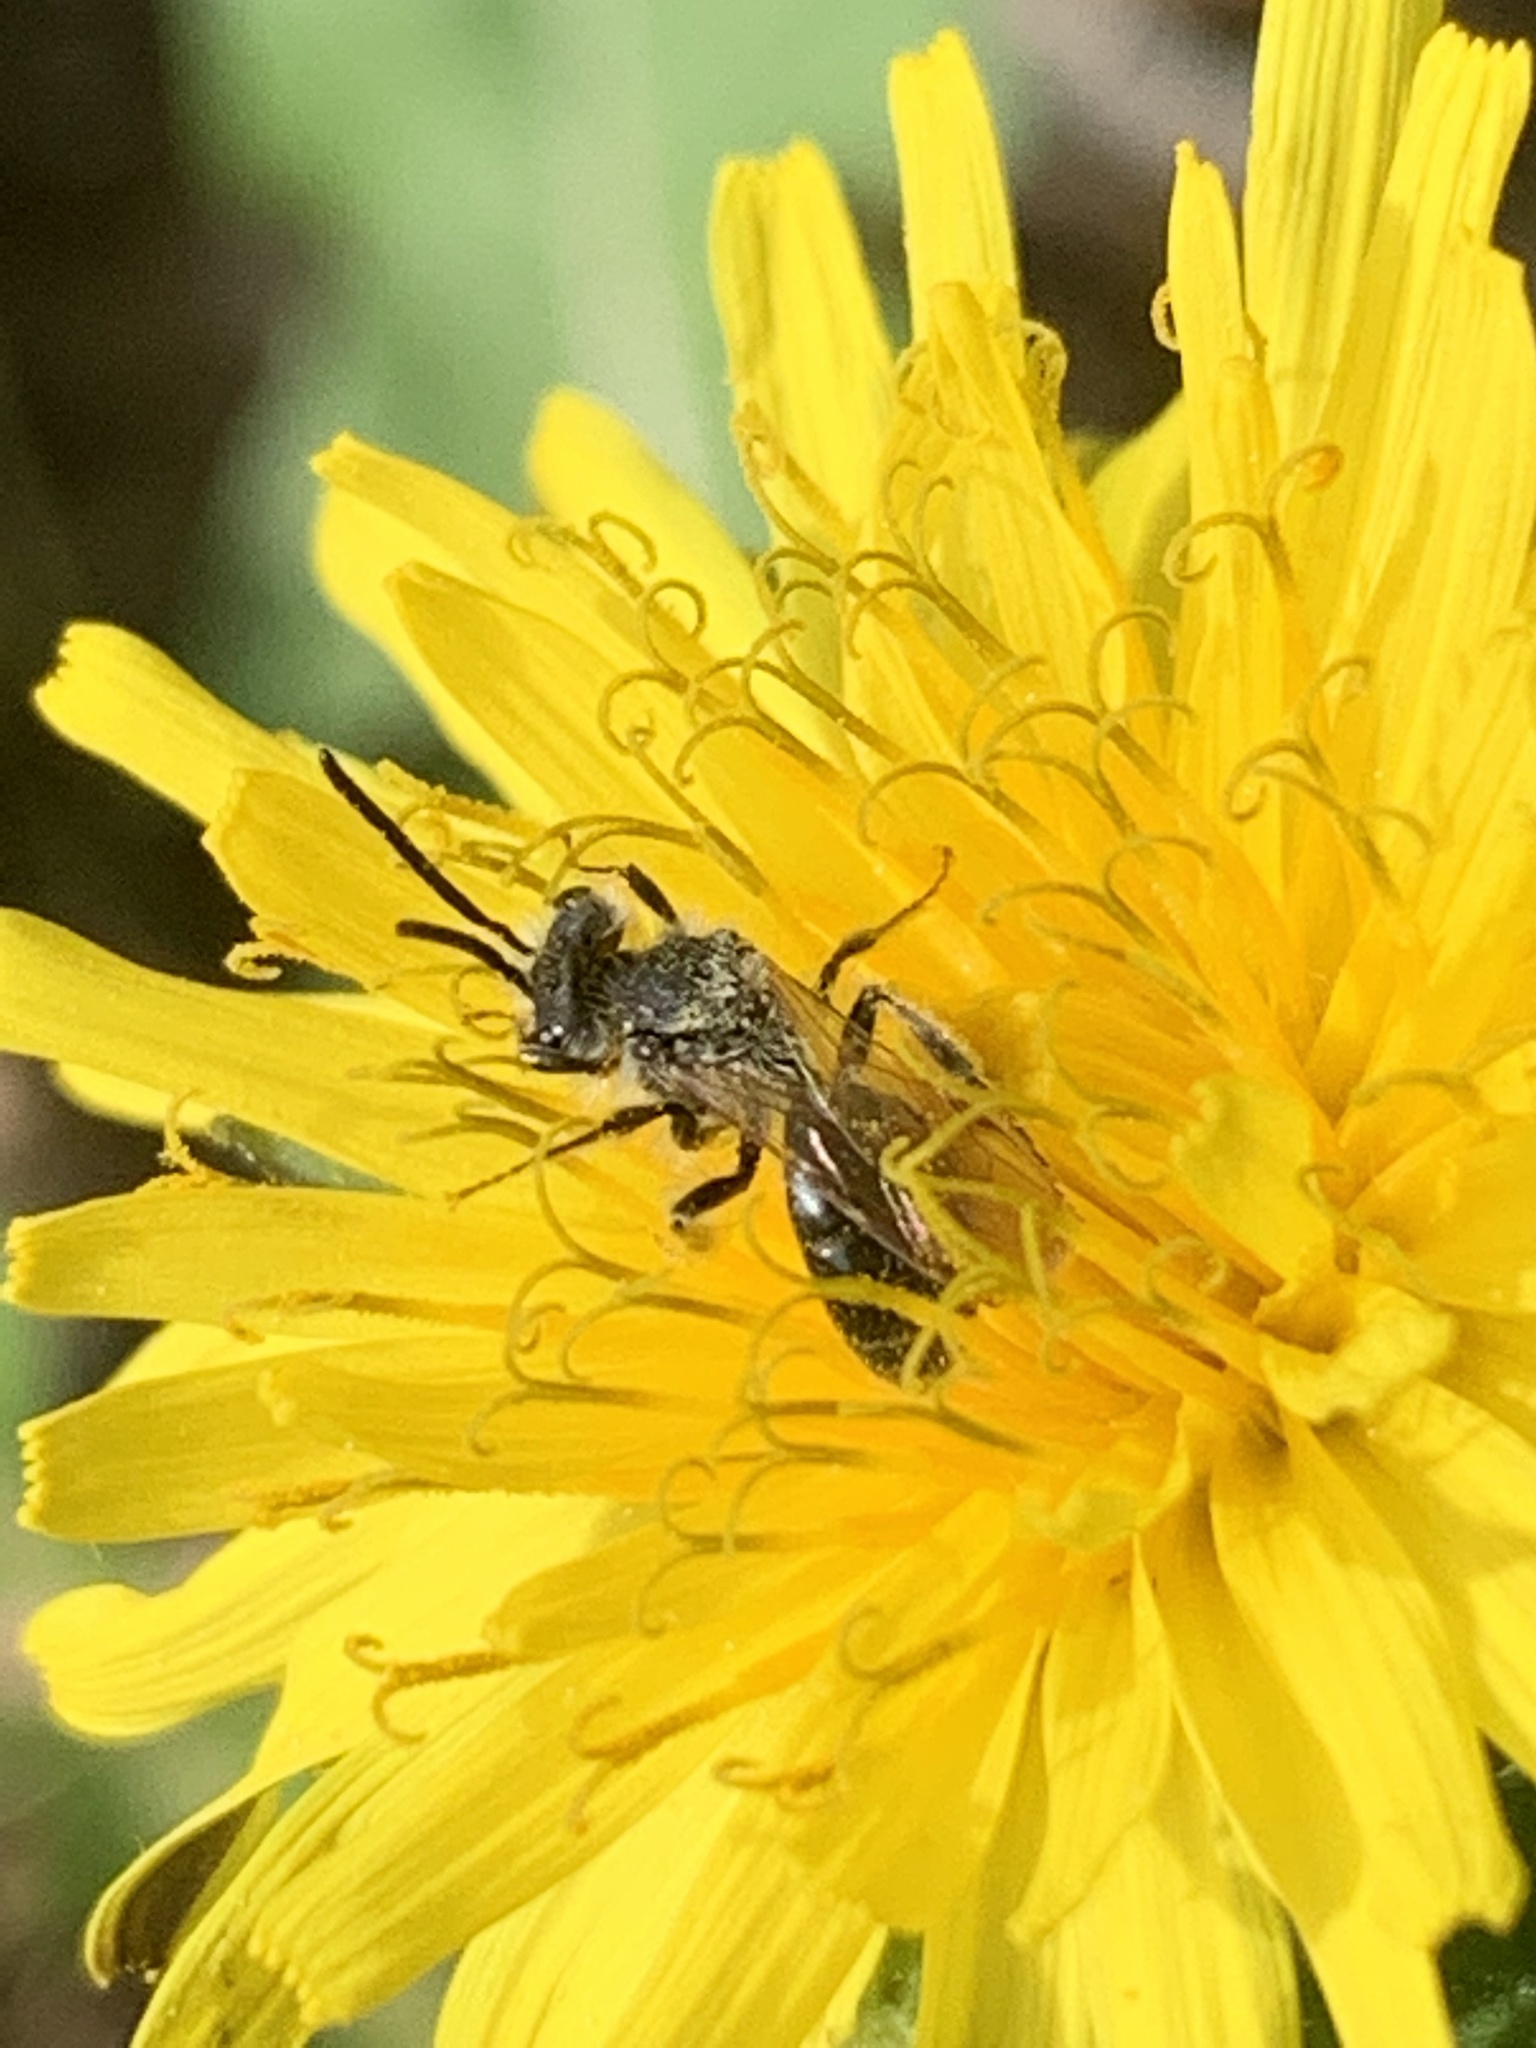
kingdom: Animalia
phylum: Arthropoda
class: Insecta
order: Hymenoptera
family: Andrenidae
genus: Andrena
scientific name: Andrena
